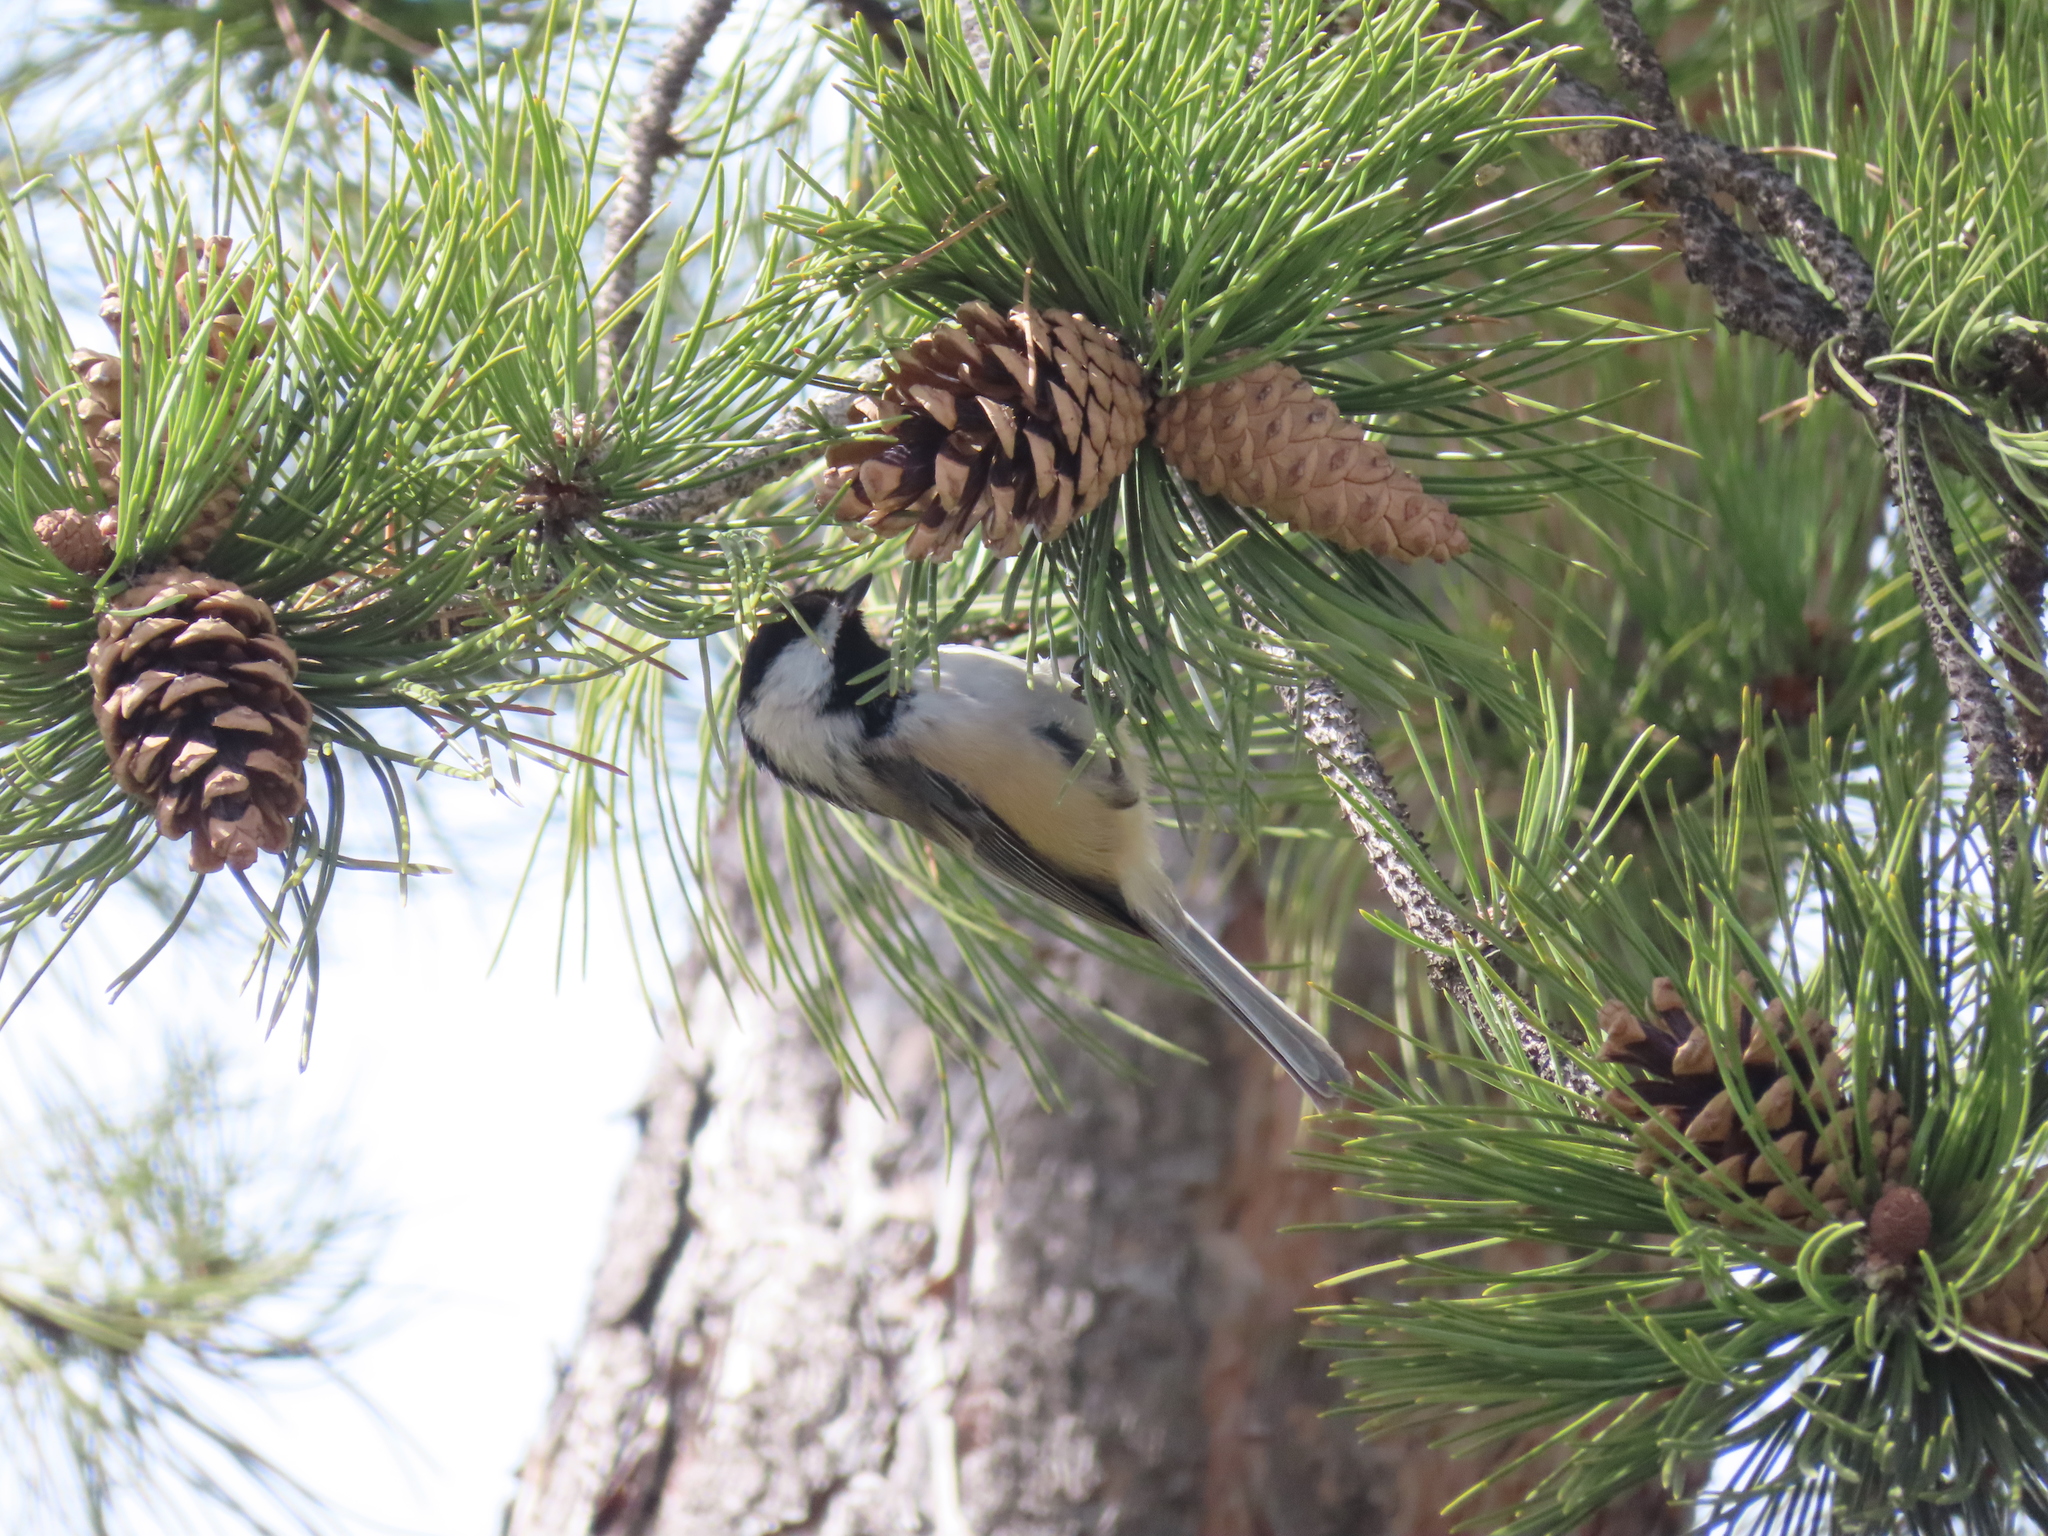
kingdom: Animalia
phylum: Chordata
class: Aves
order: Passeriformes
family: Paridae
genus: Poecile
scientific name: Poecile atricapillus
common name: Black-capped chickadee
